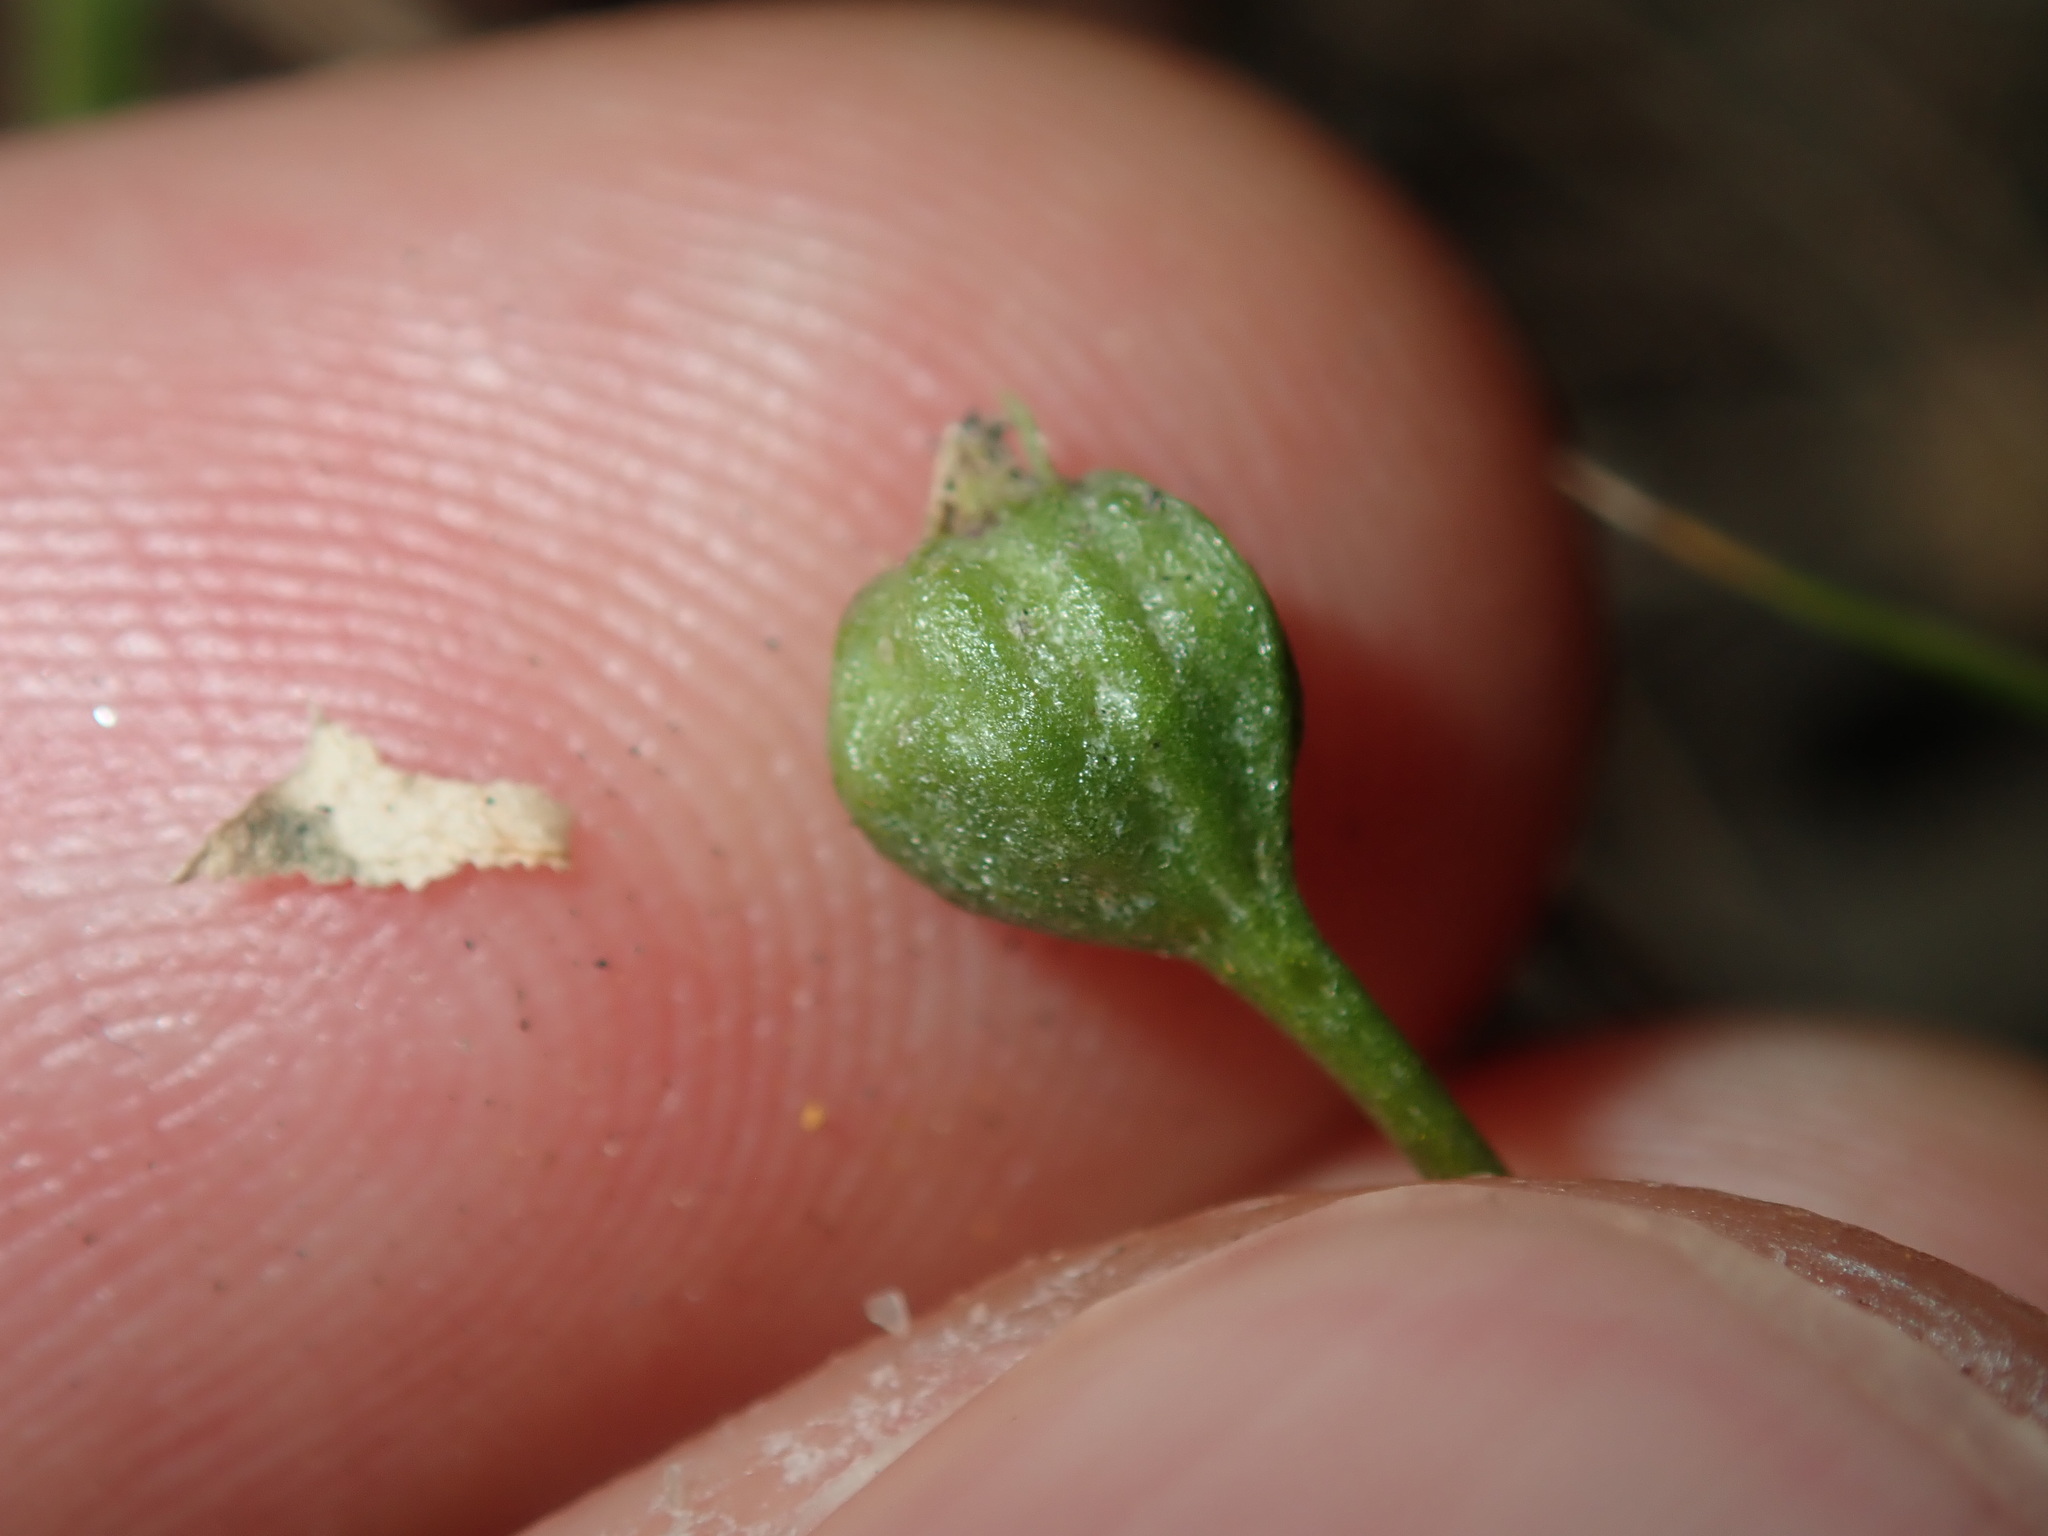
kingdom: Plantae
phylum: Tracheophyta
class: Magnoliopsida
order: Asterales
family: Campanulaceae
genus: Lobelia
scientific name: Lobelia purpurascens
